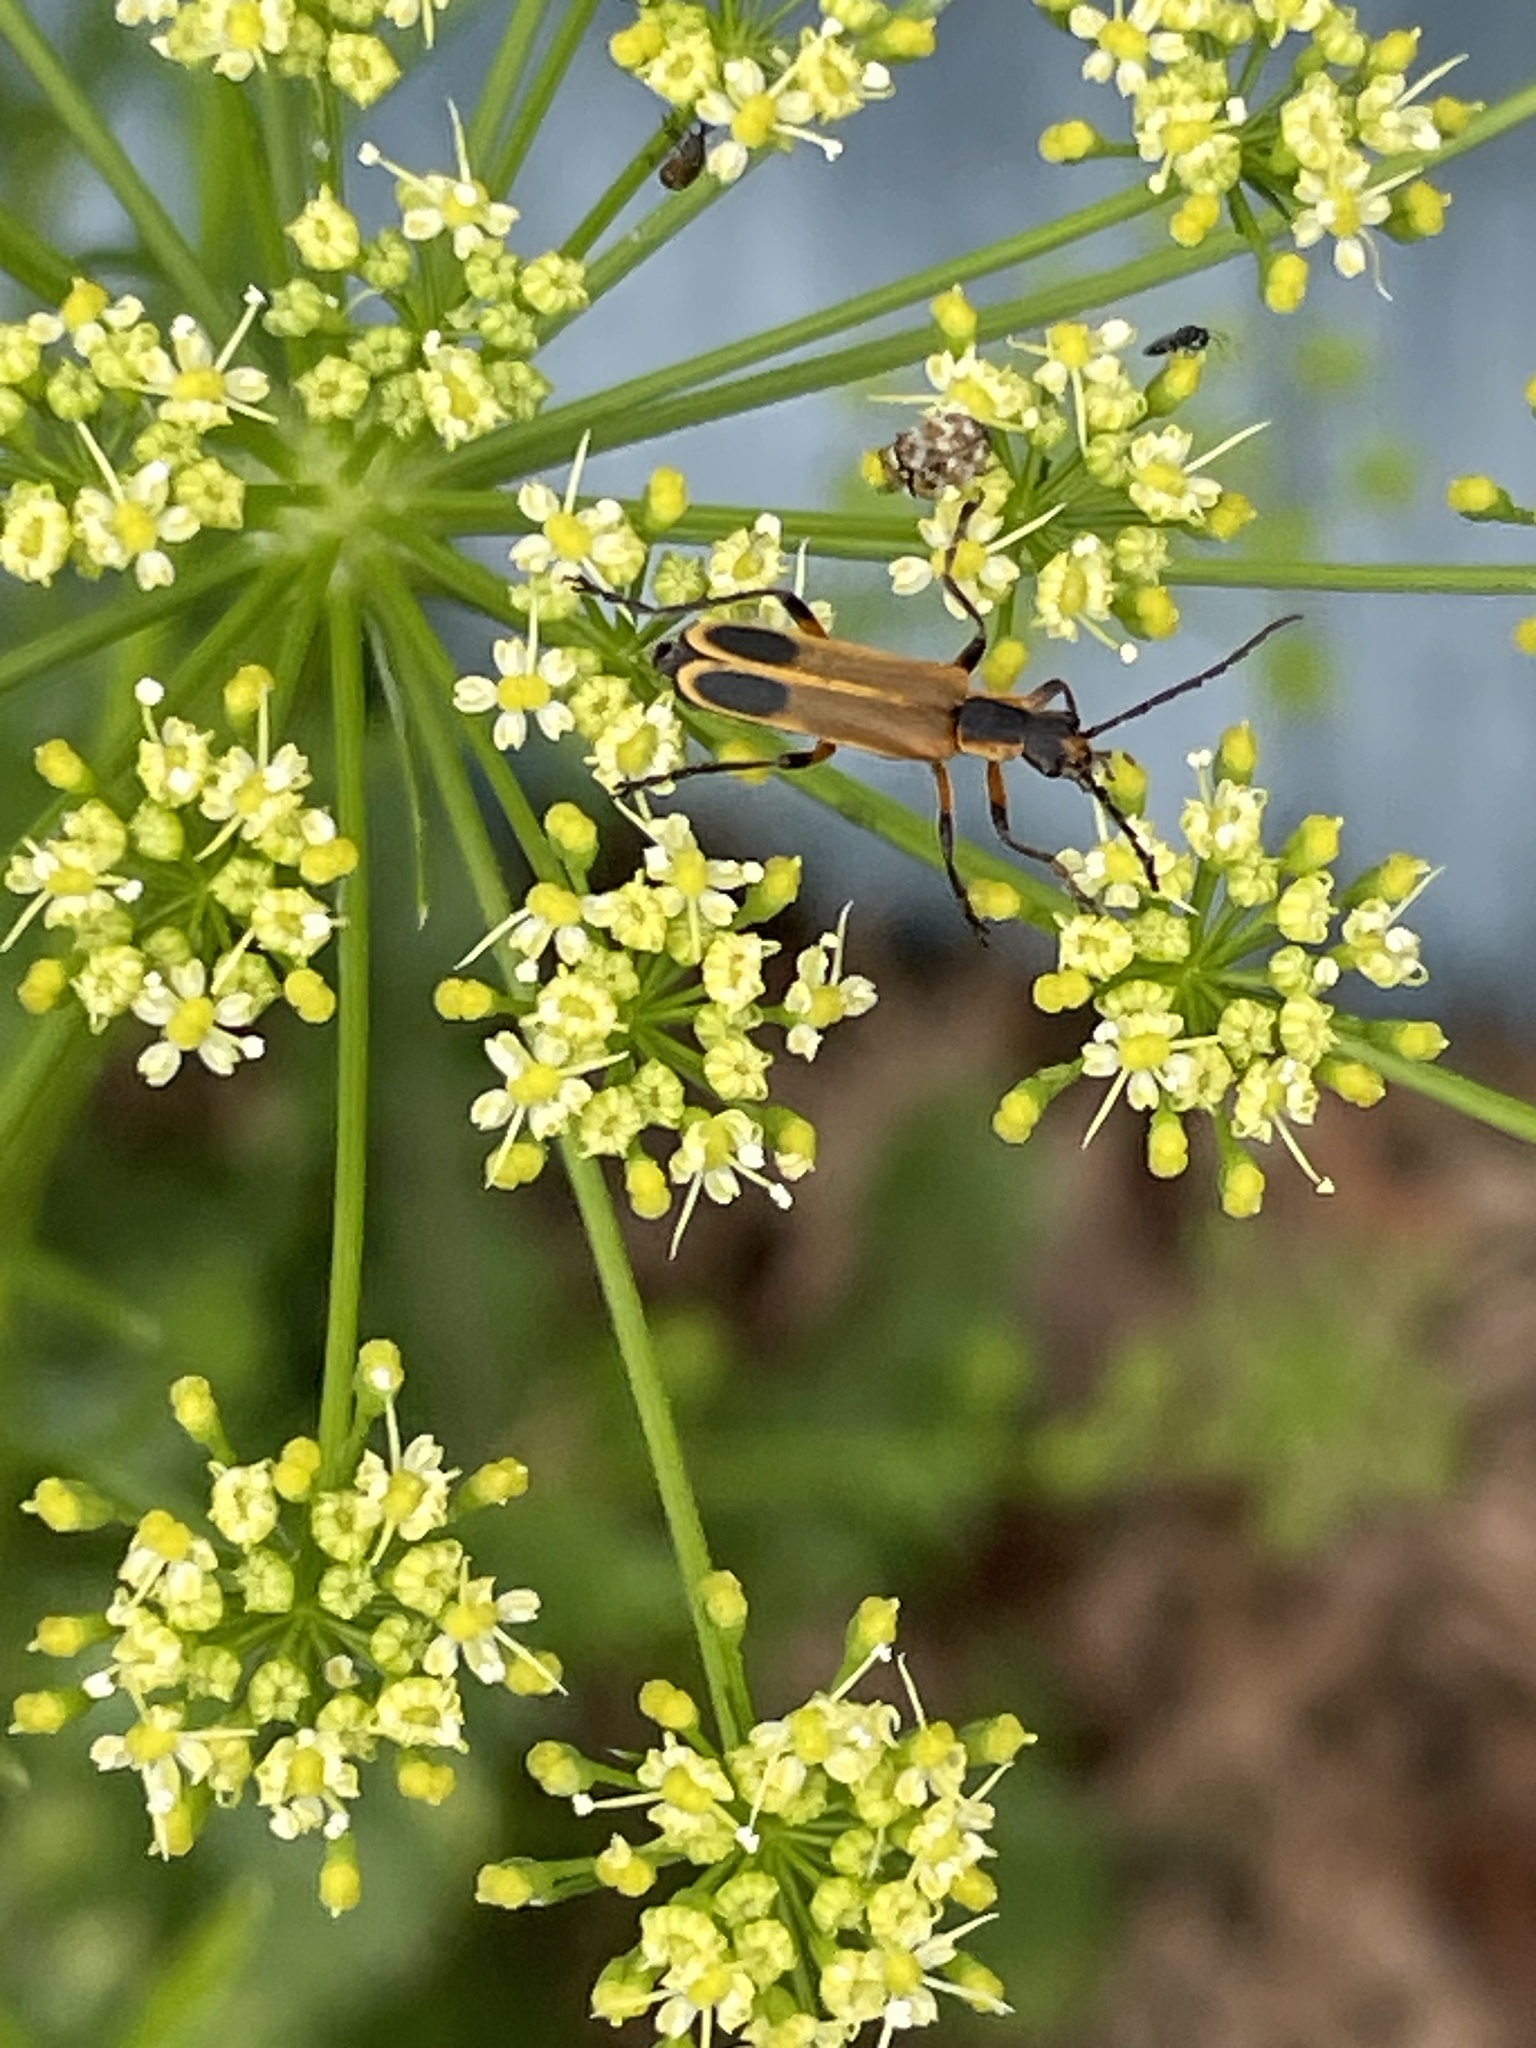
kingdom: Animalia
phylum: Arthropoda
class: Insecta
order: Coleoptera
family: Cantharidae
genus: Chauliognathus
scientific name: Chauliognathus marginatus
